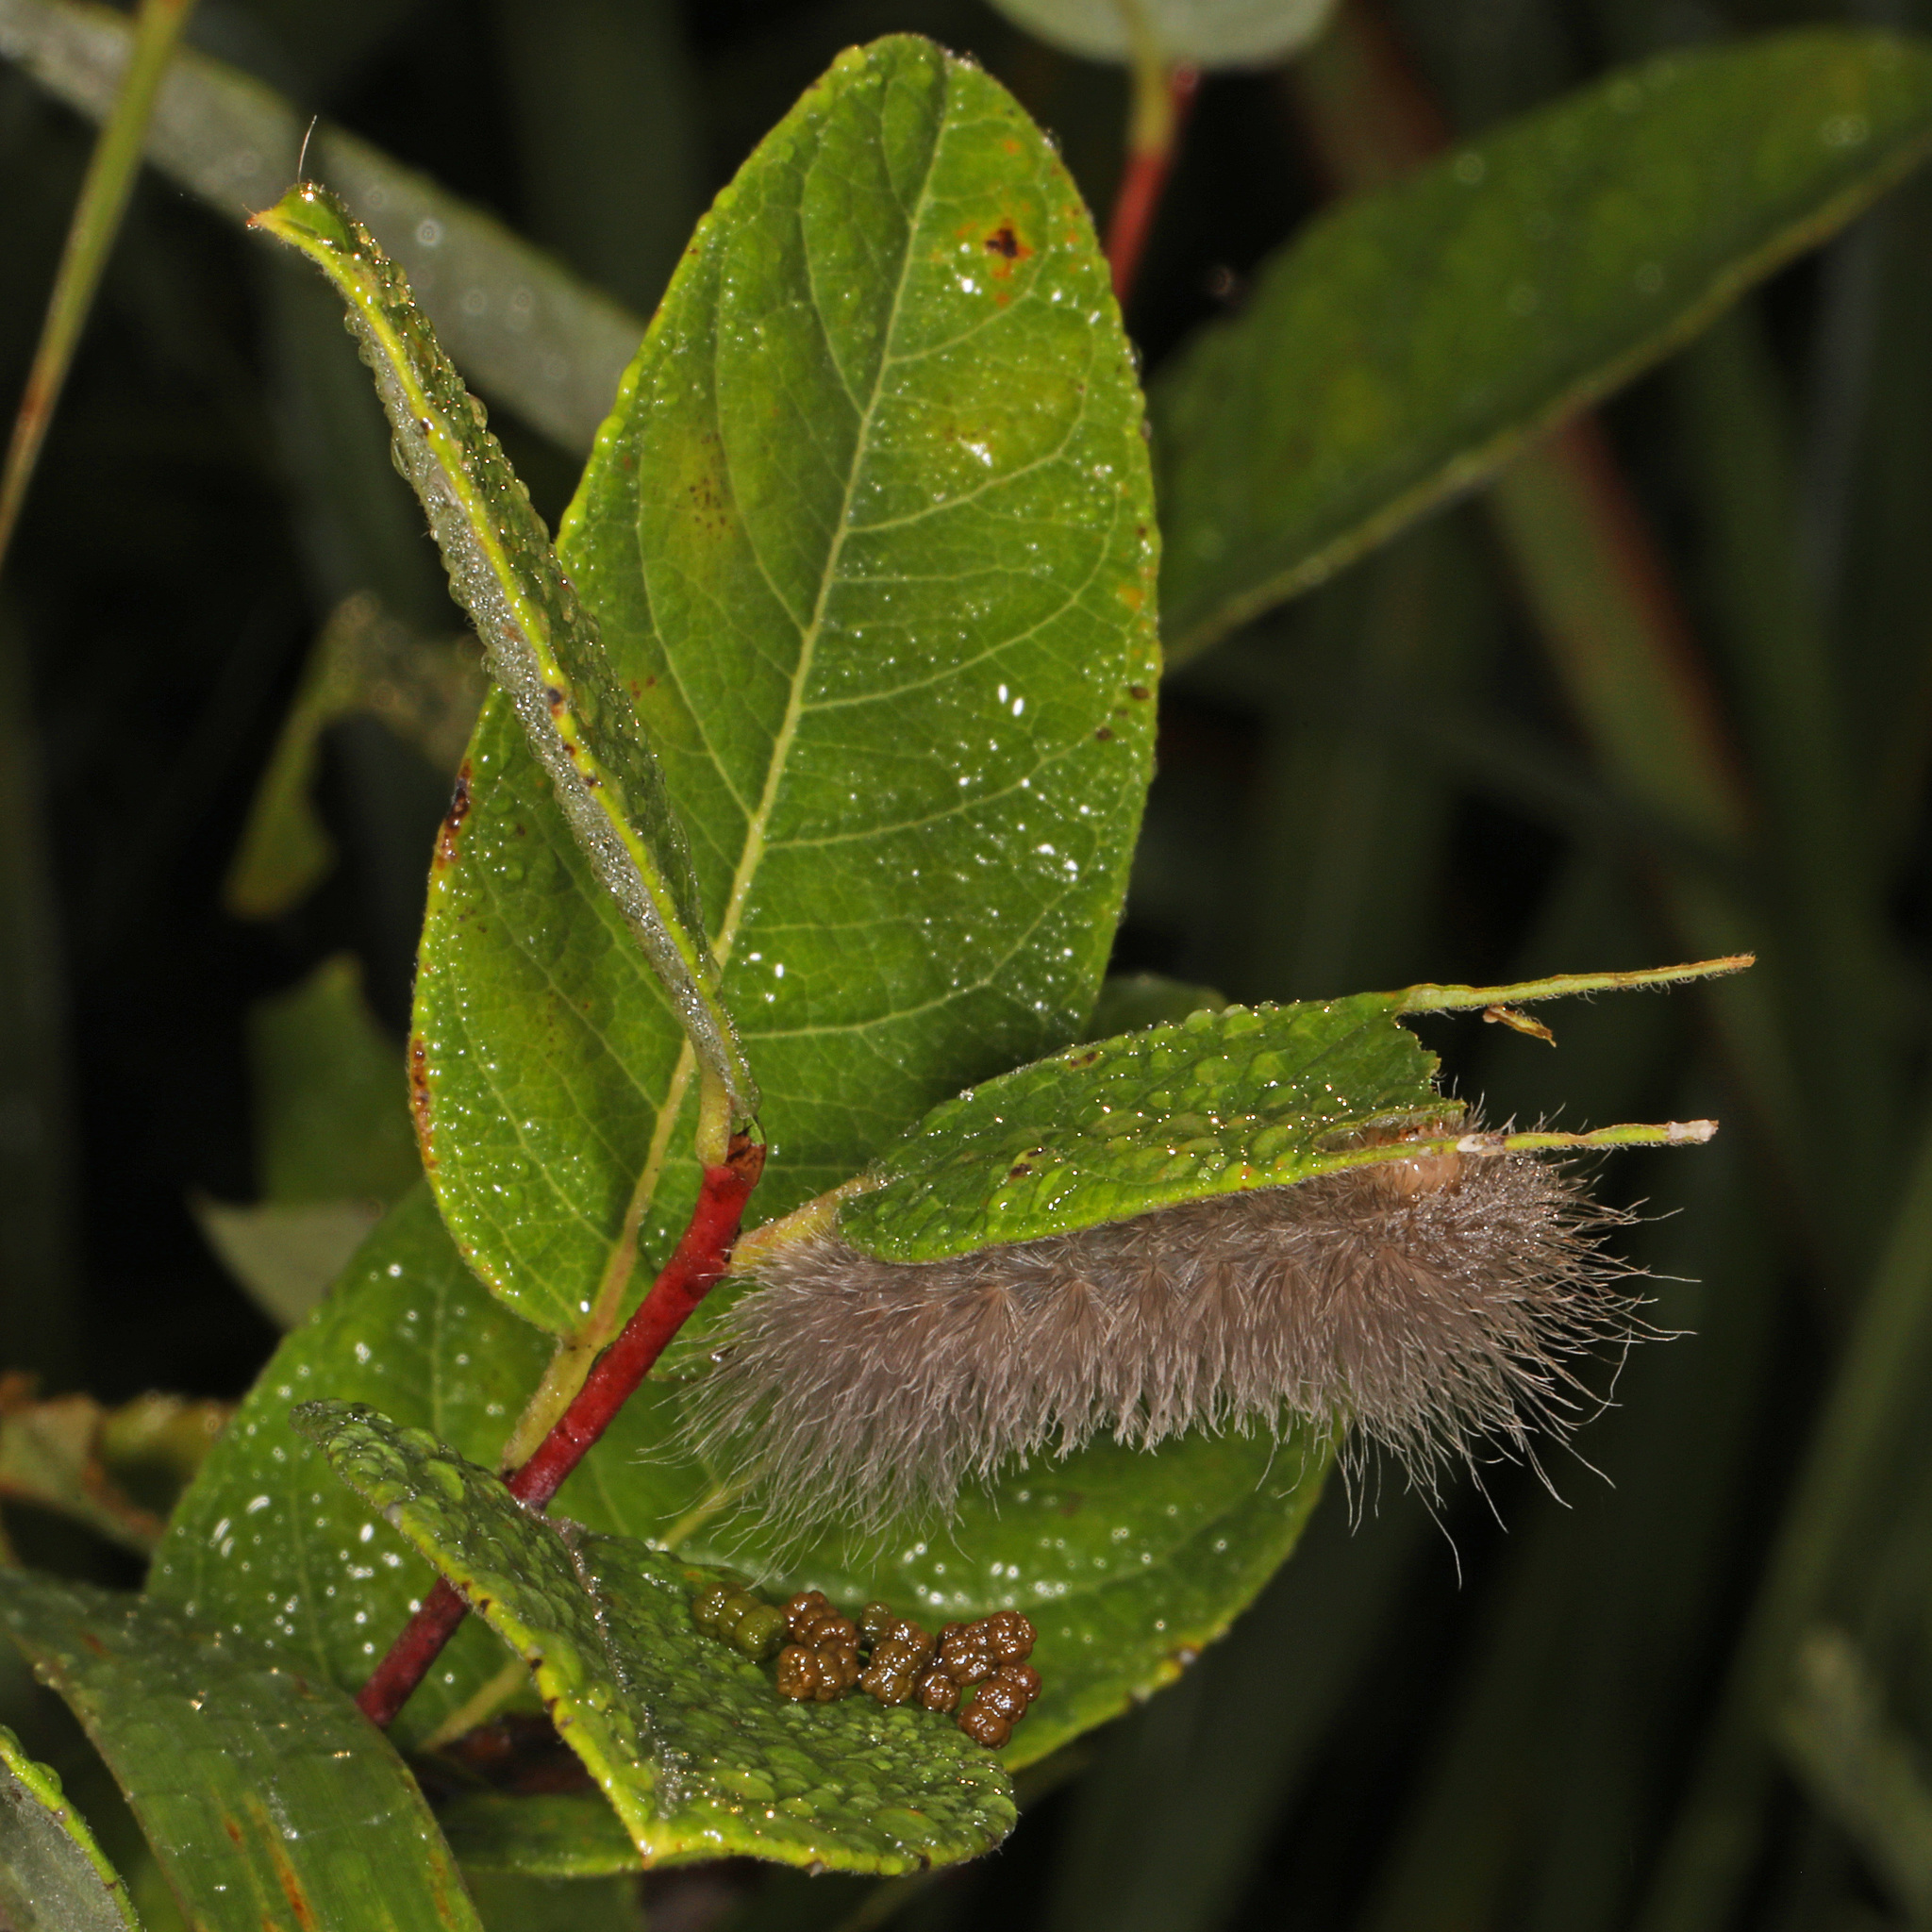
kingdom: Animalia
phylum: Arthropoda
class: Insecta
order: Lepidoptera
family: Erebidae
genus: Cycnia
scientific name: Cycnia tenera
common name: Delicate cycnia moth
